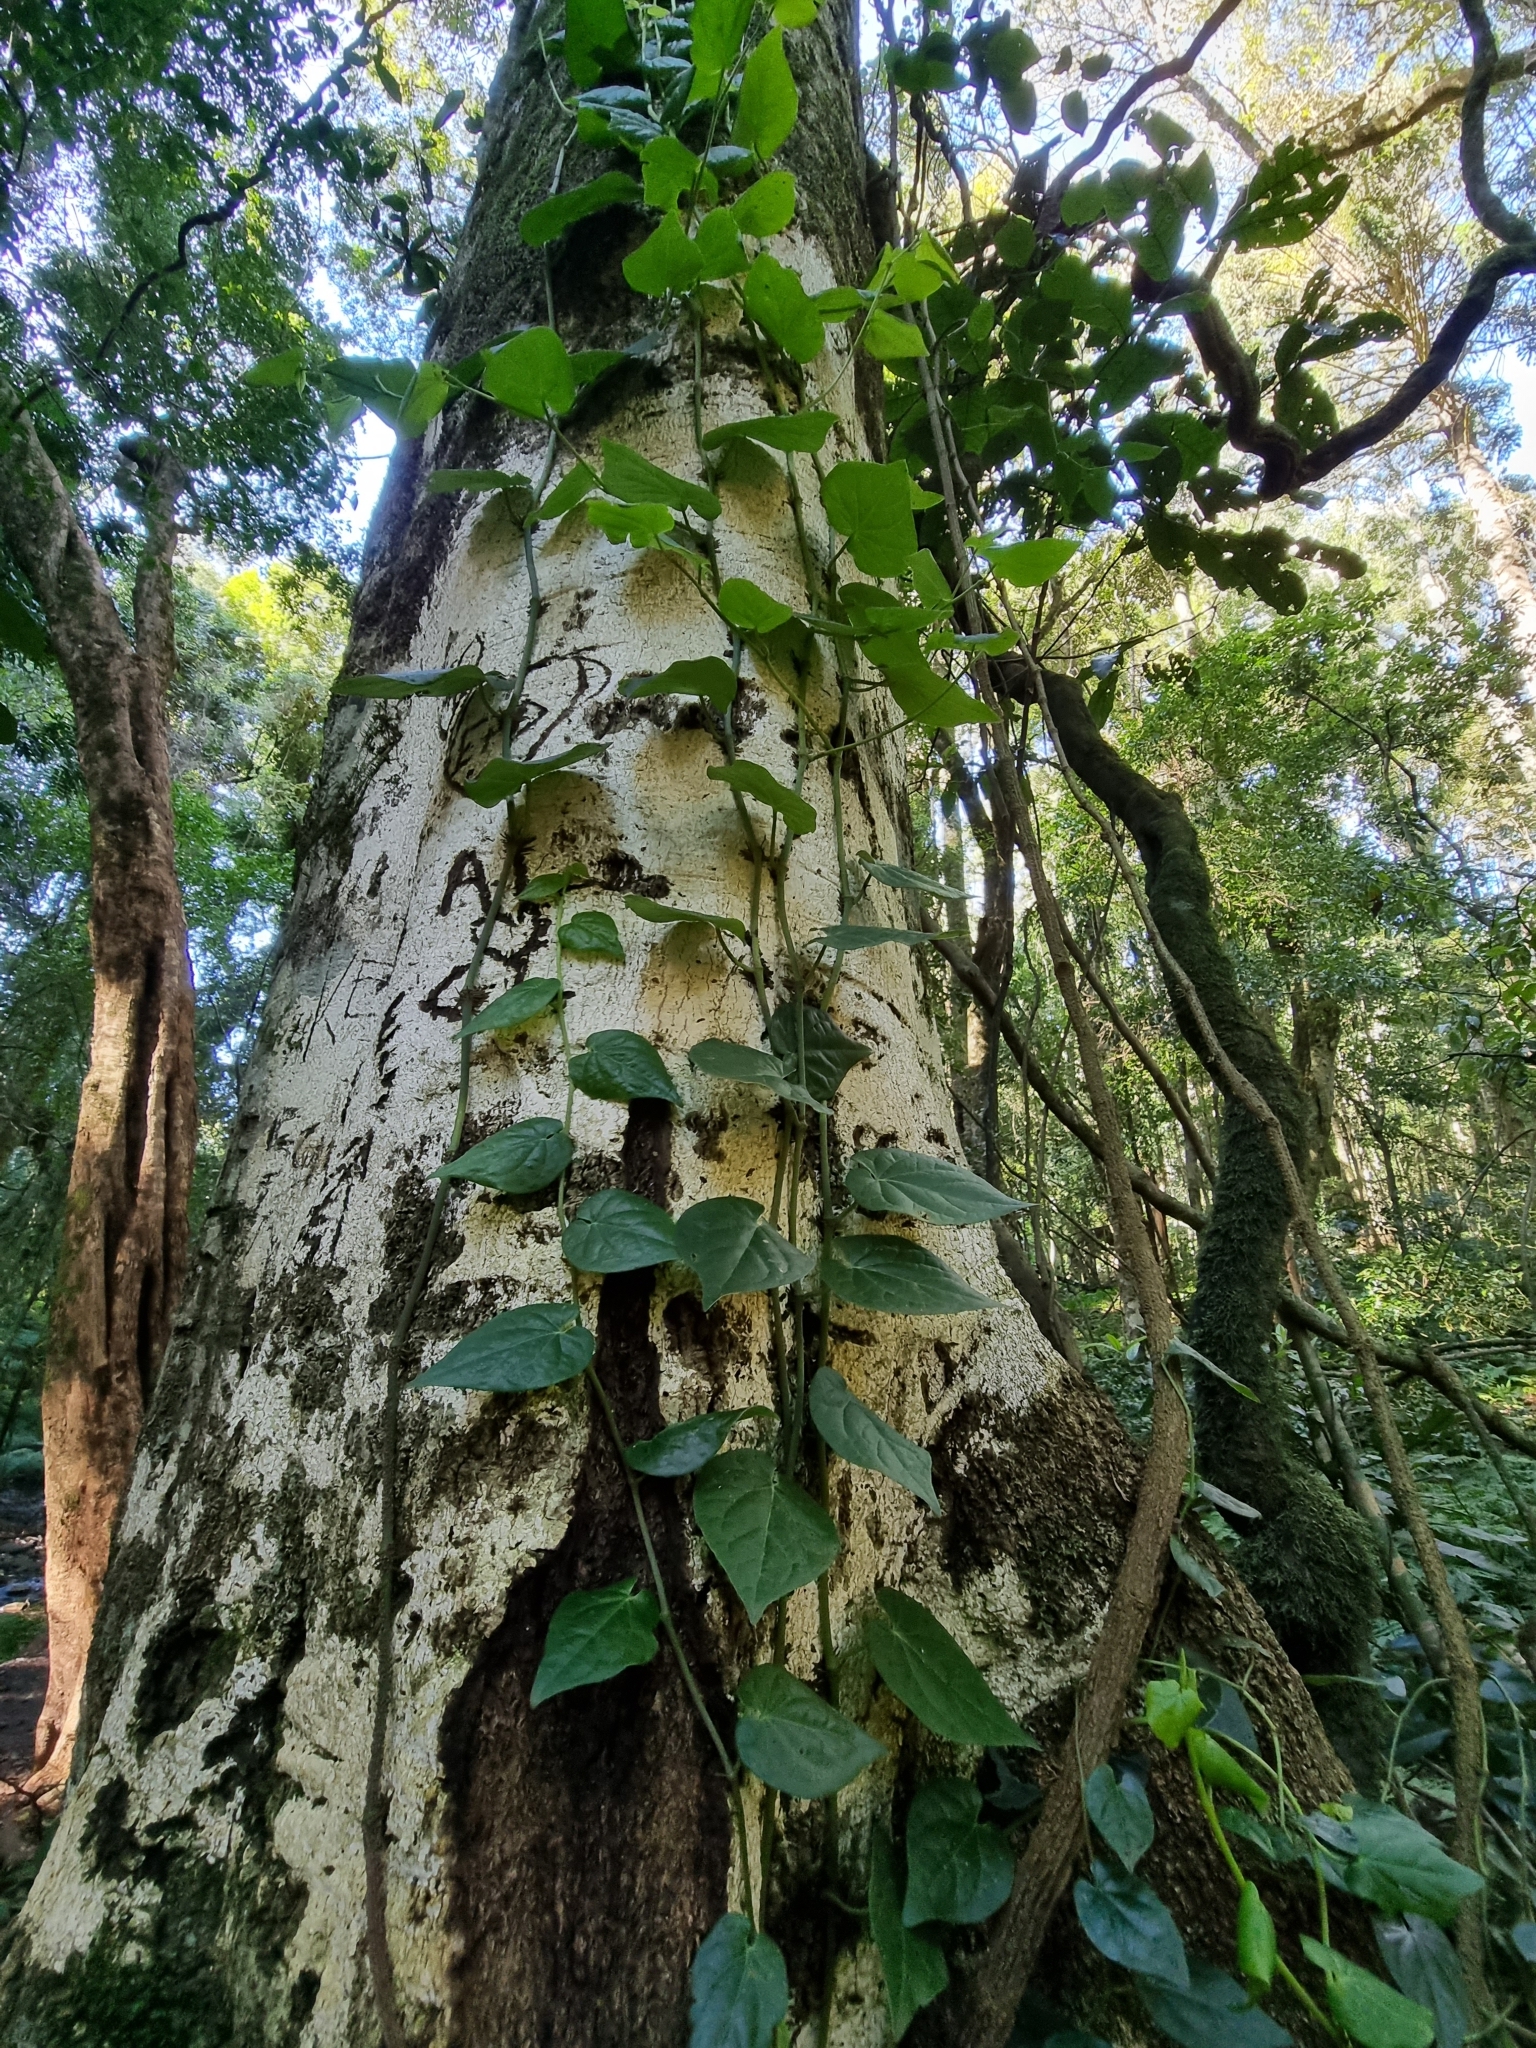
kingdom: Plantae
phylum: Tracheophyta
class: Magnoliopsida
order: Piperales
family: Piperaceae
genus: Piper
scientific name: Piper hederaceum
